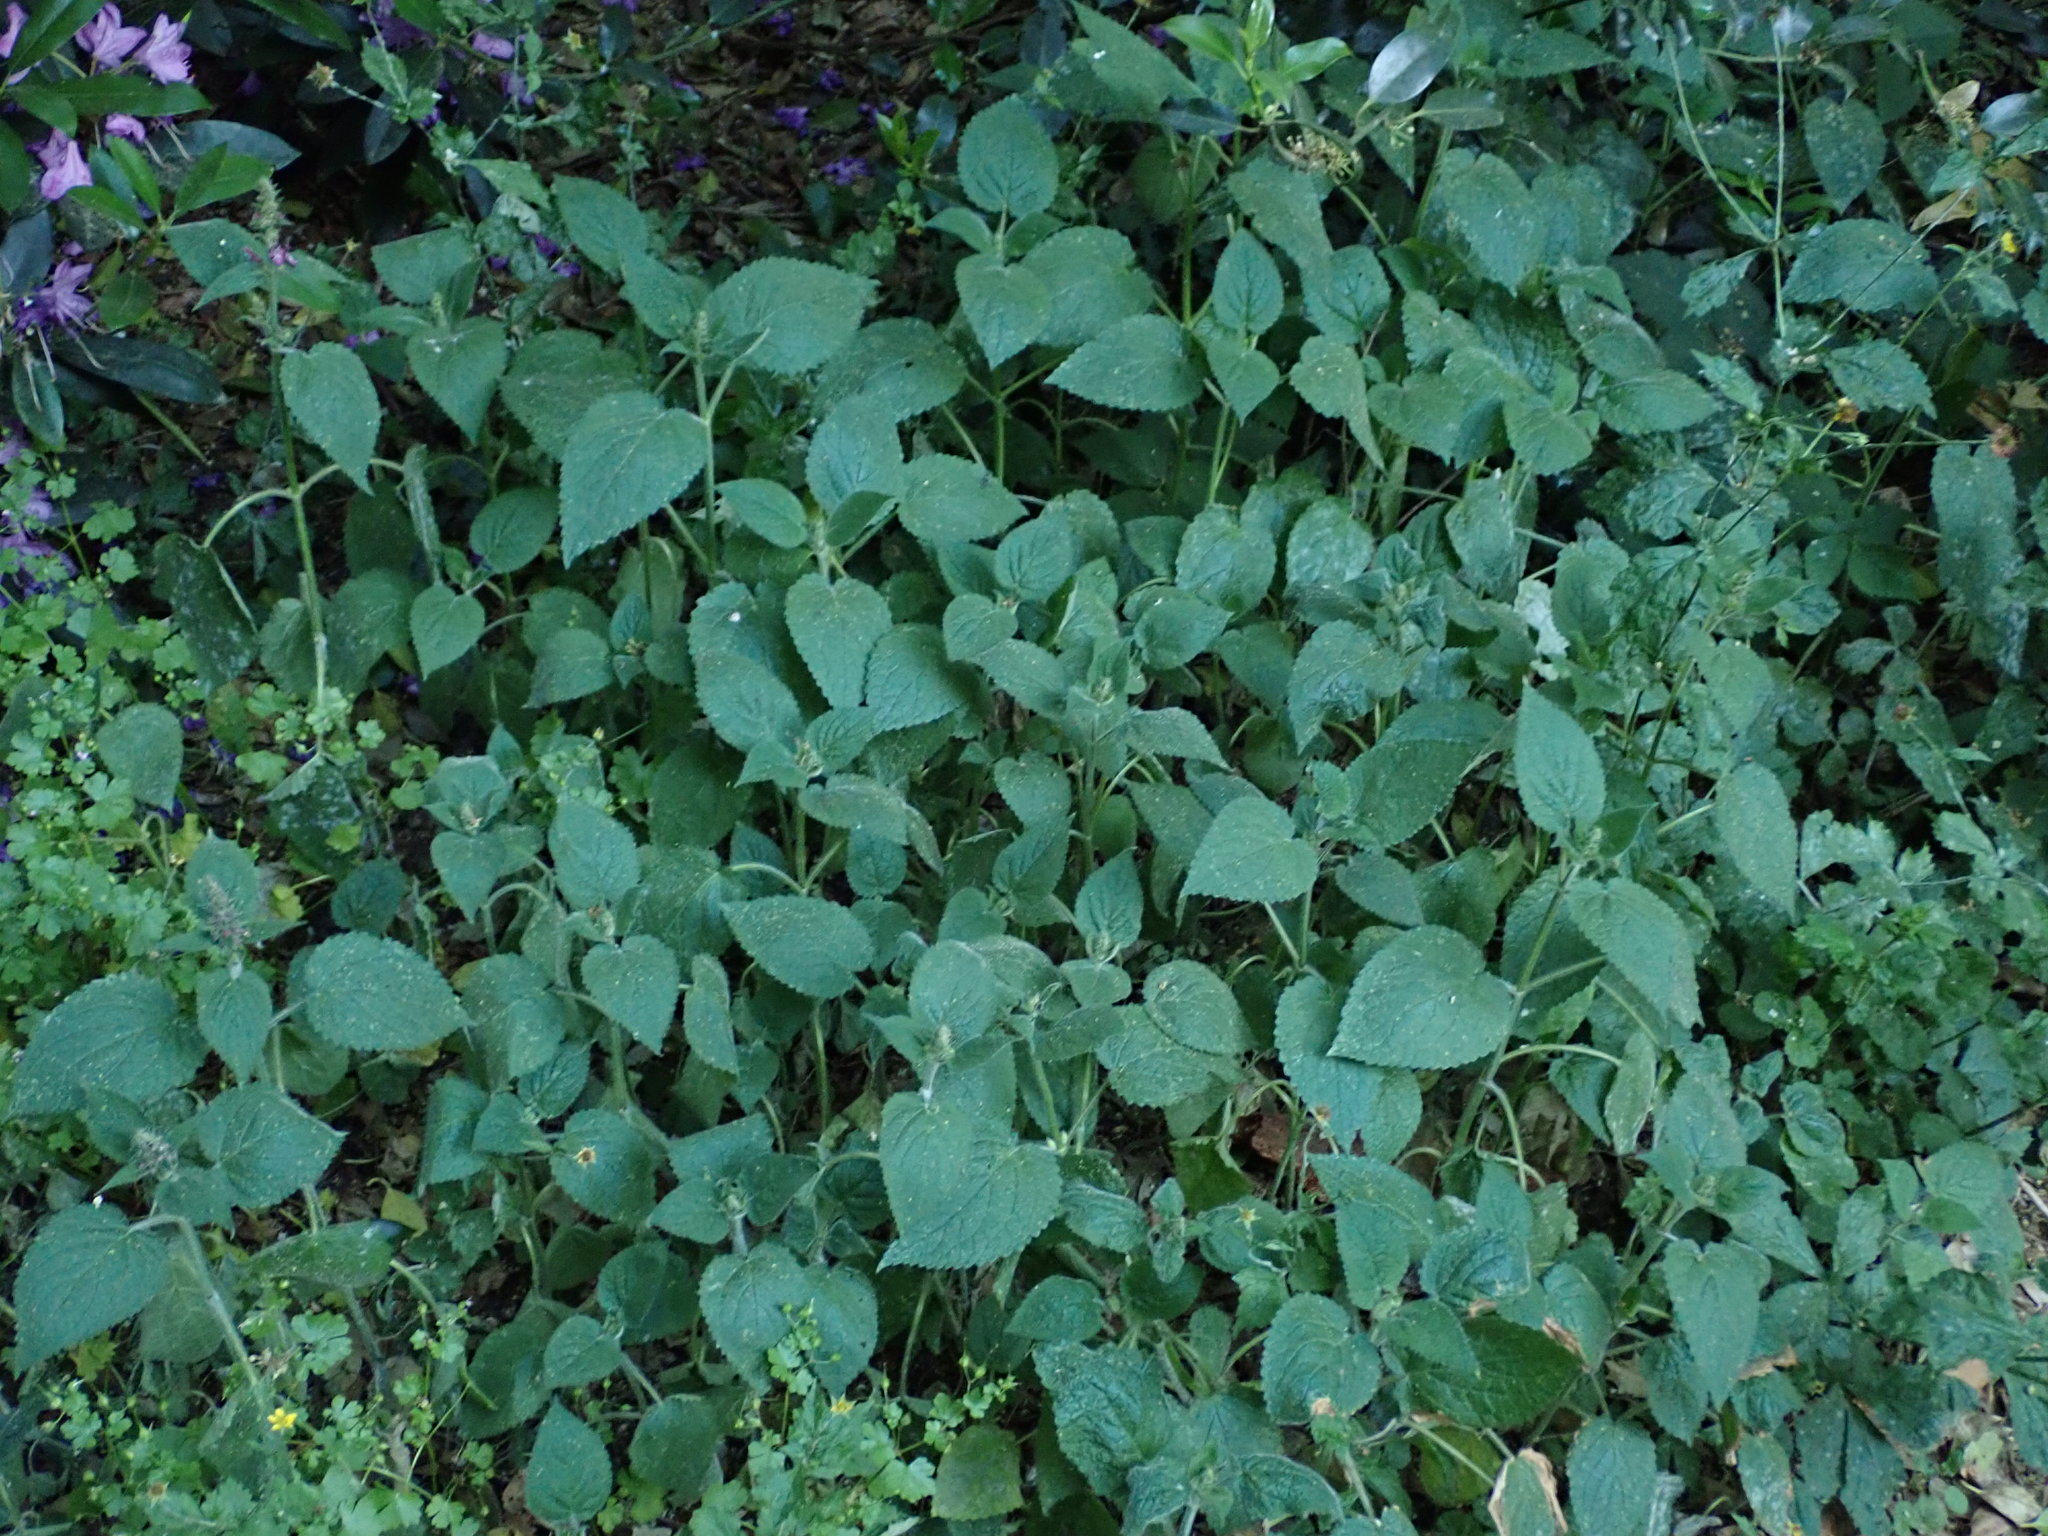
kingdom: Plantae
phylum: Tracheophyta
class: Magnoliopsida
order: Lamiales
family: Lamiaceae
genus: Stachys
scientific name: Stachys sylvatica
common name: Hedge woundwort
